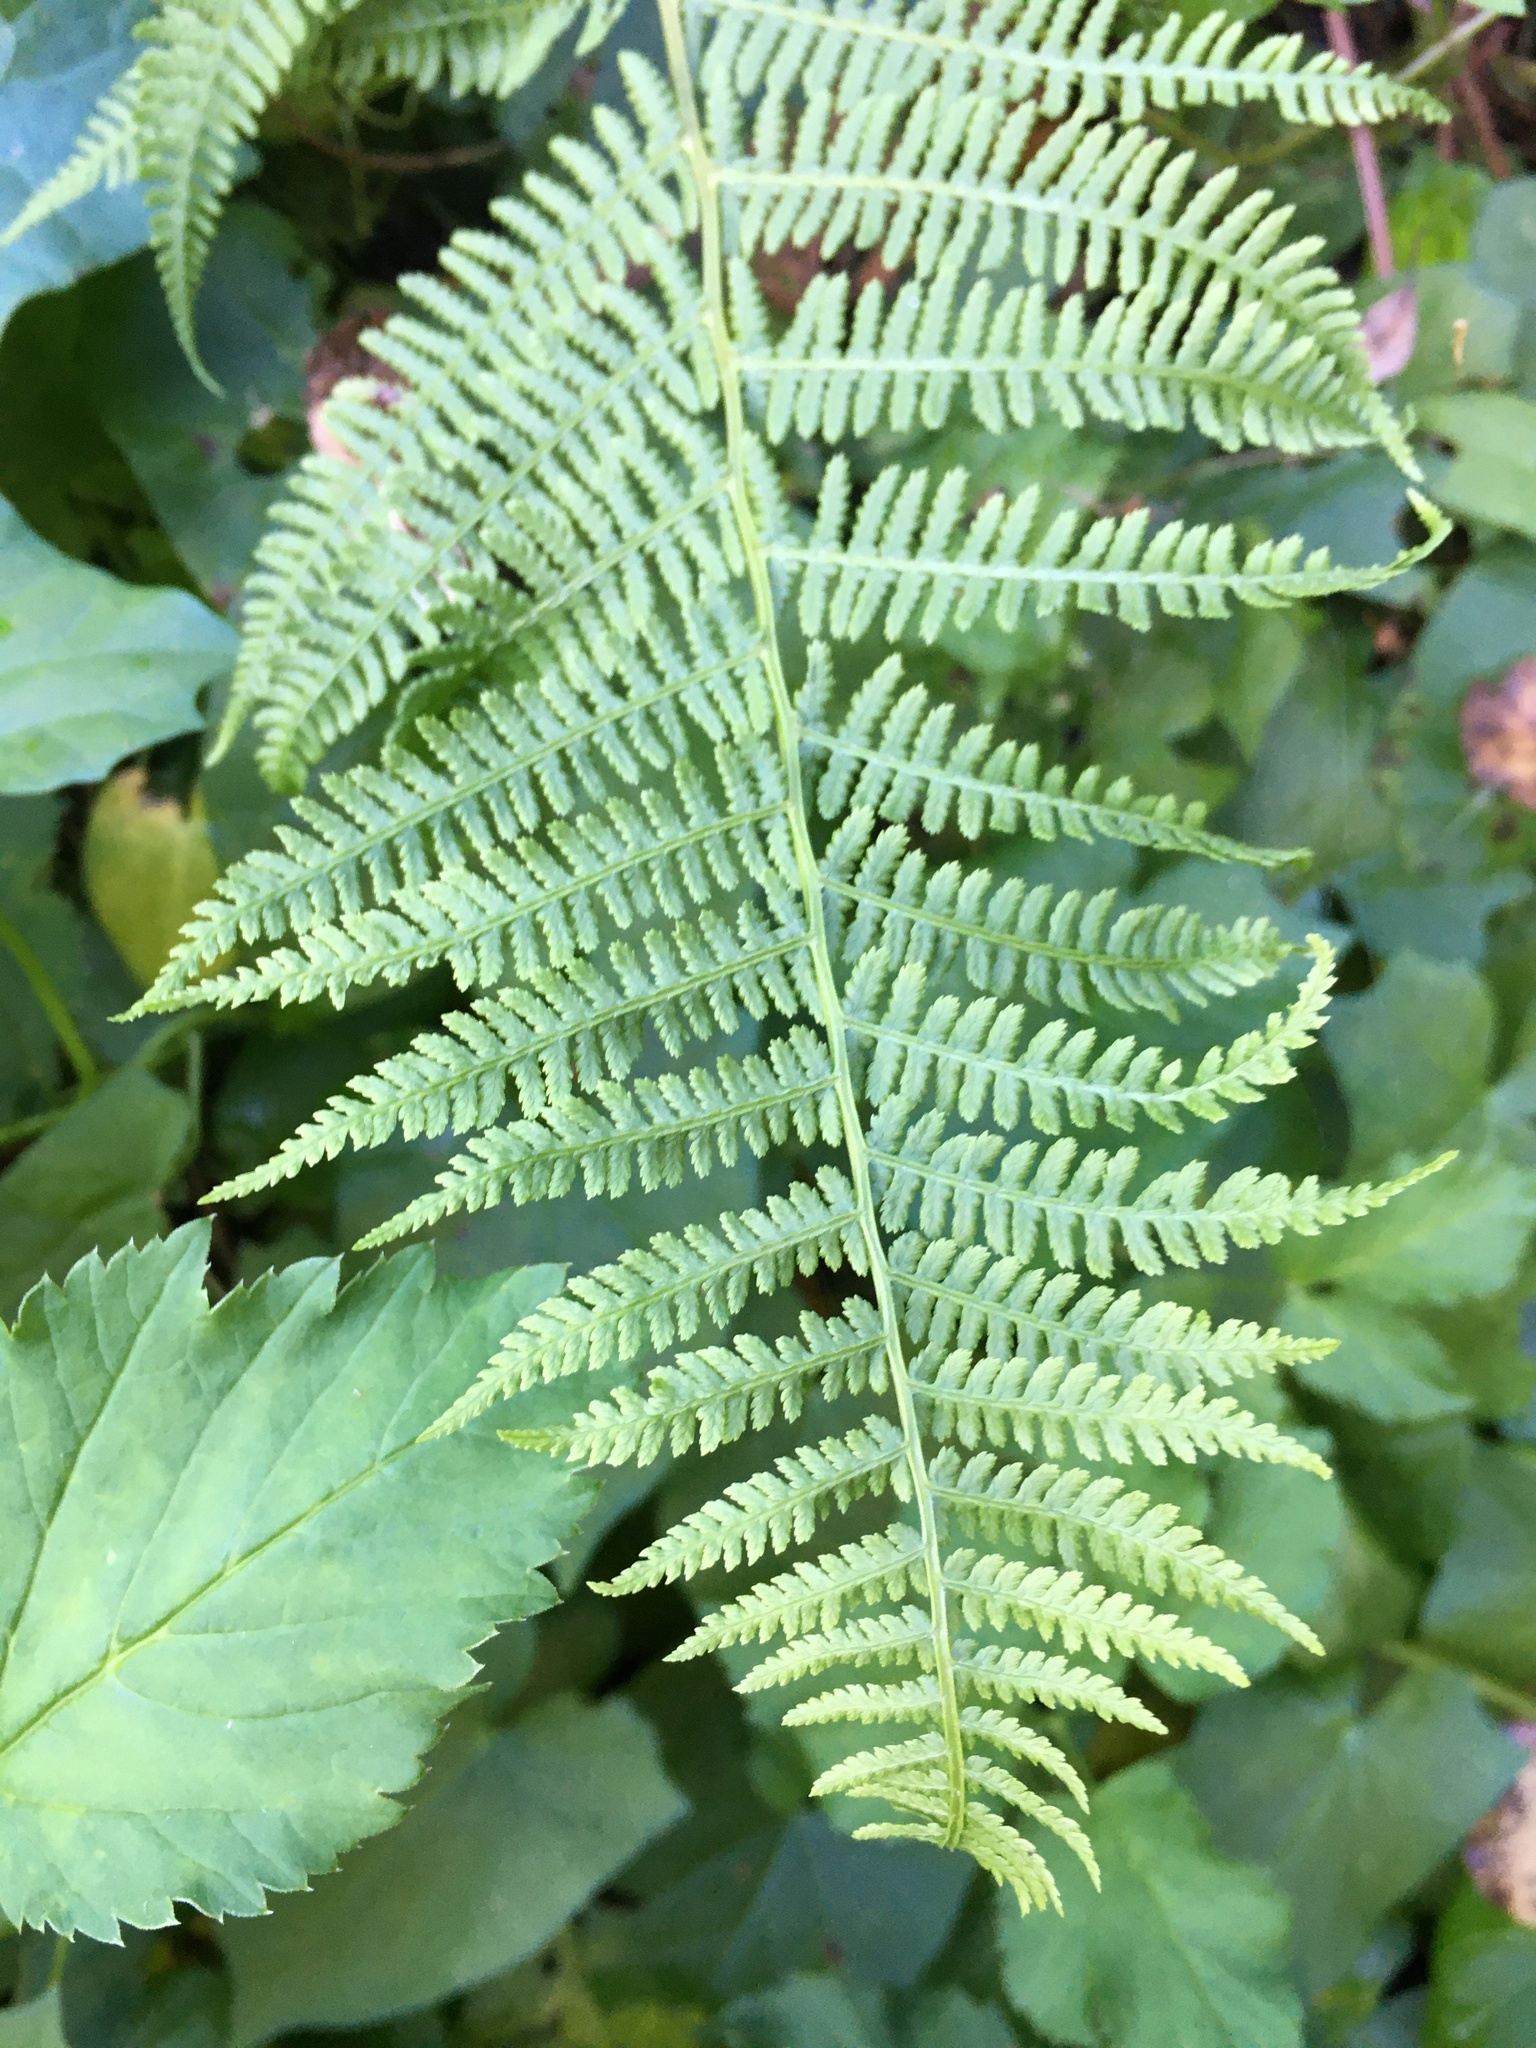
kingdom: Plantae
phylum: Tracheophyta
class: Polypodiopsida
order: Polypodiales
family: Athyriaceae
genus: Athyrium
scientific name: Athyrium filix-femina
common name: Lady fern
